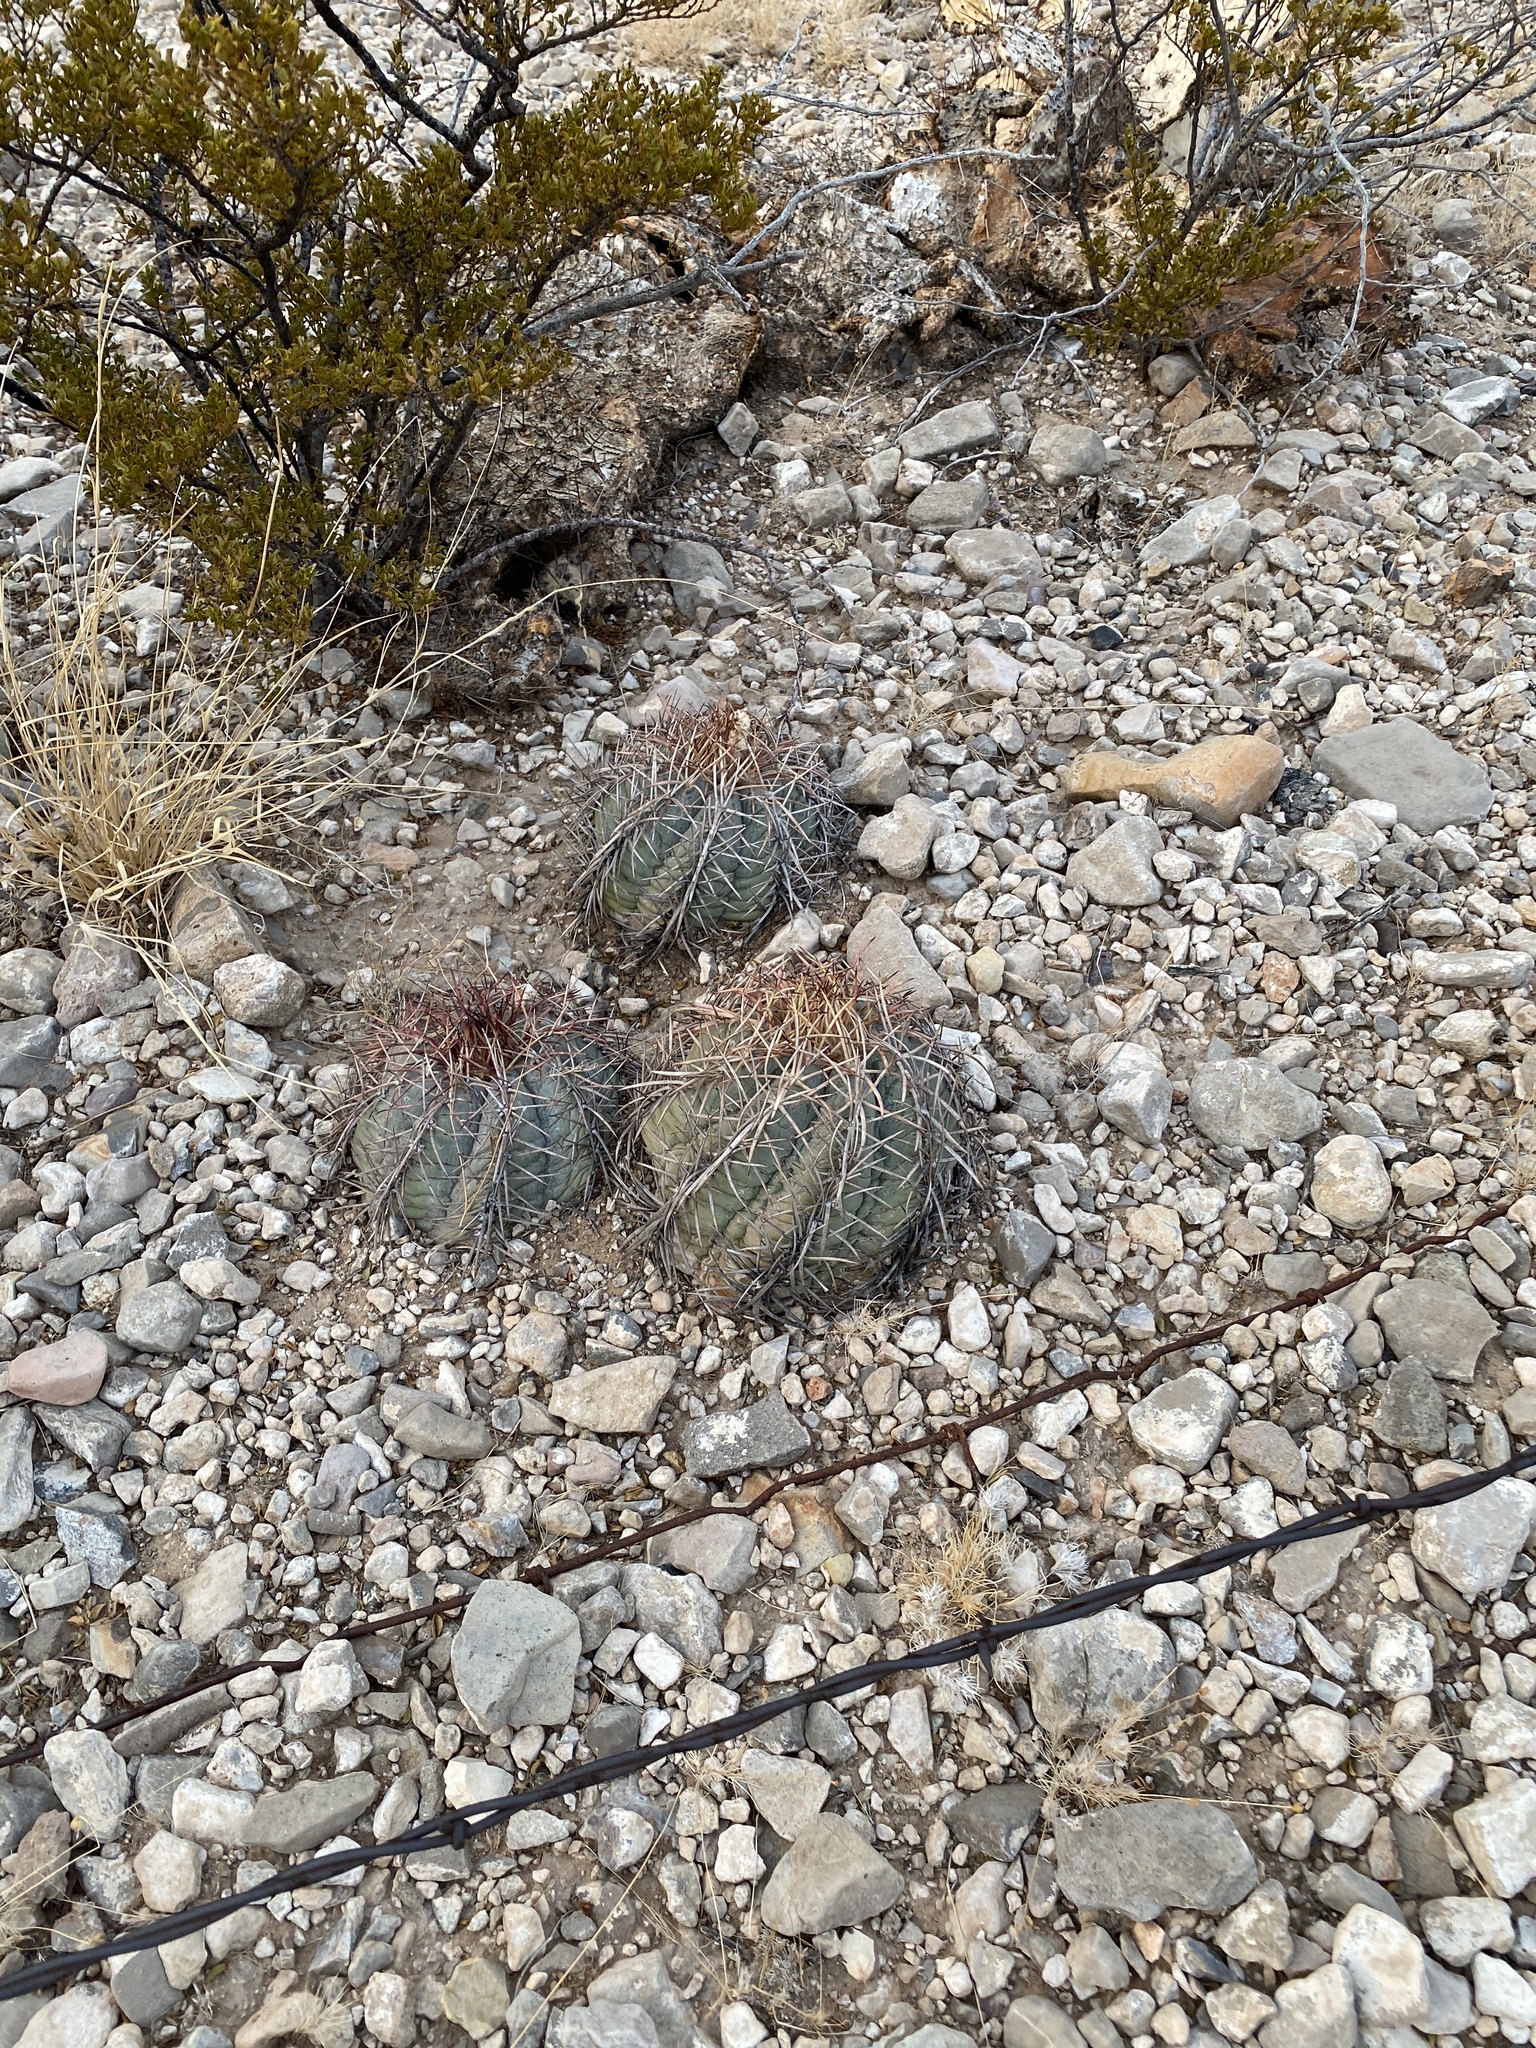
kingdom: Plantae
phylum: Tracheophyta
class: Magnoliopsida
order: Caryophyllales
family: Cactaceae
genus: Echinocactus
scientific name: Echinocactus horizonthalonius
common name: Devilshead
